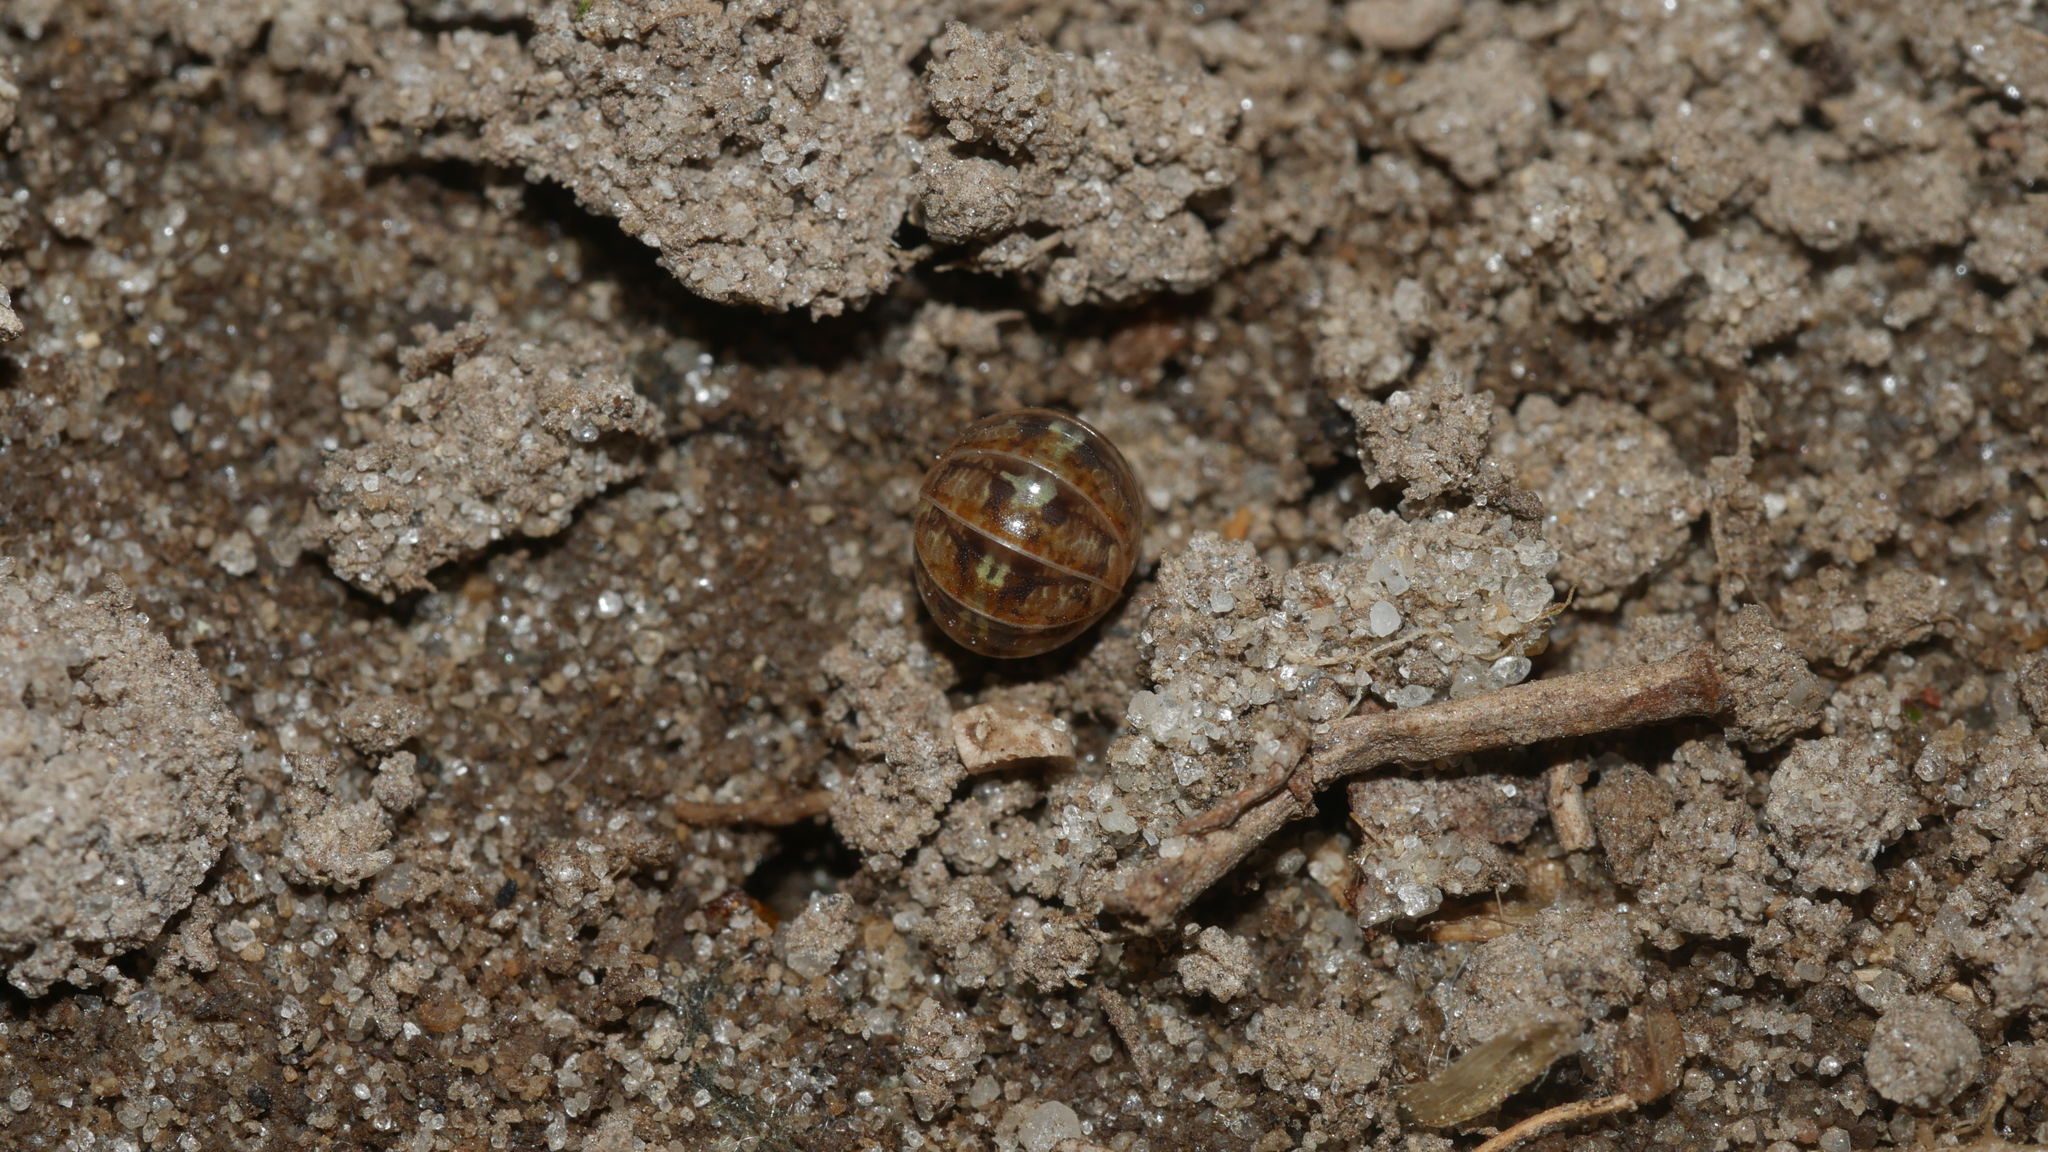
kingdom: Animalia
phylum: Arthropoda
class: Malacostraca
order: Isopoda
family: Armadillidiidae
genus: Armadillidium
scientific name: Armadillidium vulgare
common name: Common pill woodlouse
